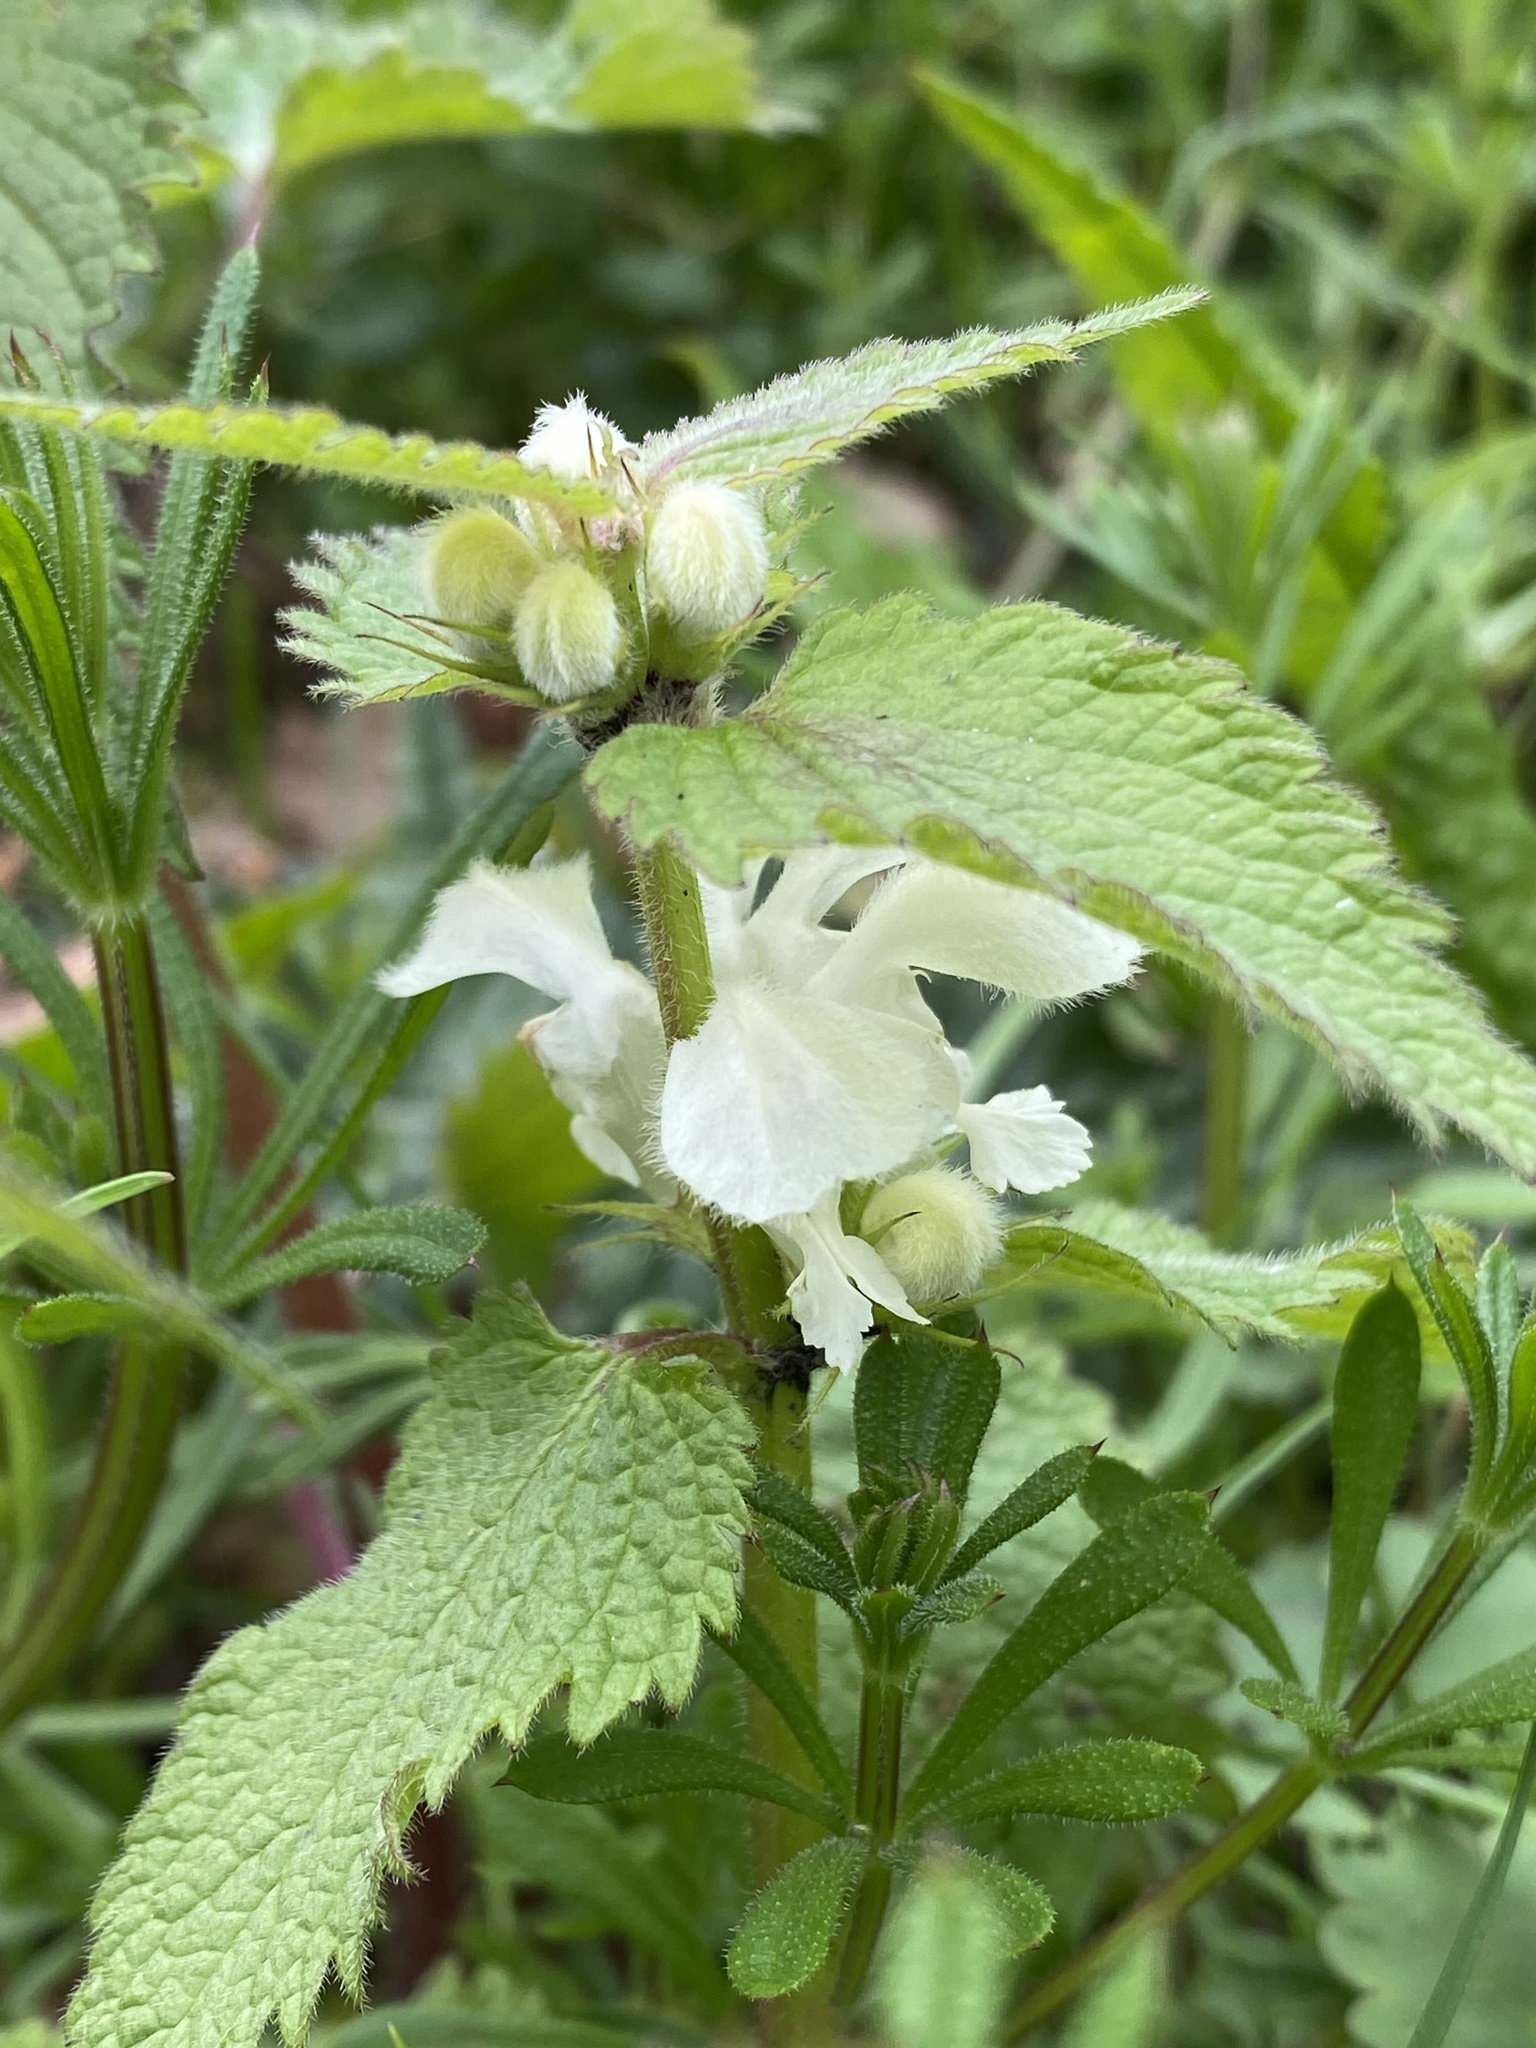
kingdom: Plantae
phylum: Tracheophyta
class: Magnoliopsida
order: Lamiales
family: Lamiaceae
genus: Lamium
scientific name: Lamium album
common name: White dead-nettle
